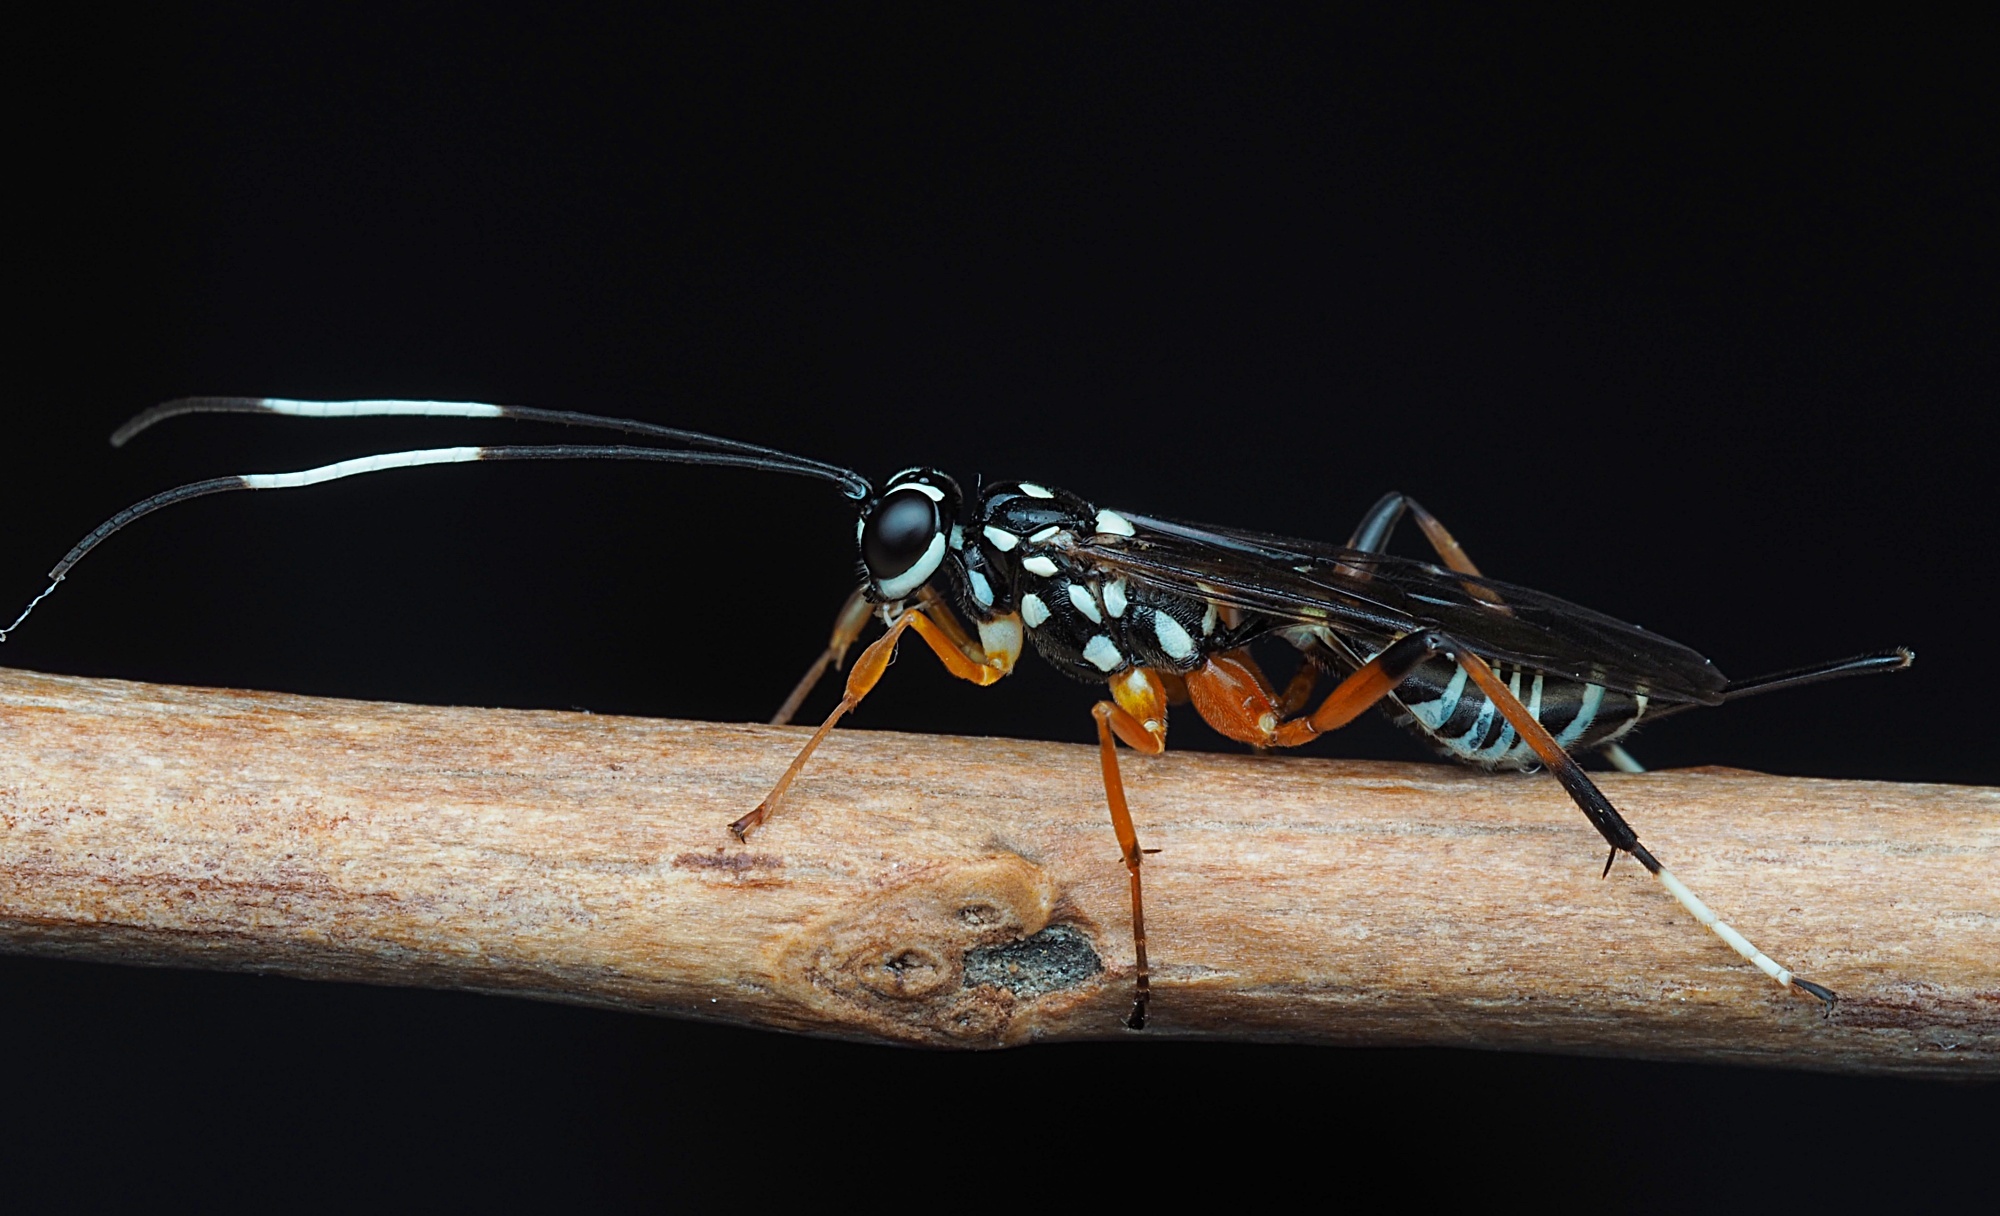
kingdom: Animalia
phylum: Arthropoda
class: Insecta
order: Hymenoptera
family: Ichneumonidae
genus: Xanthocryptus
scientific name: Xanthocryptus novozealandicus
